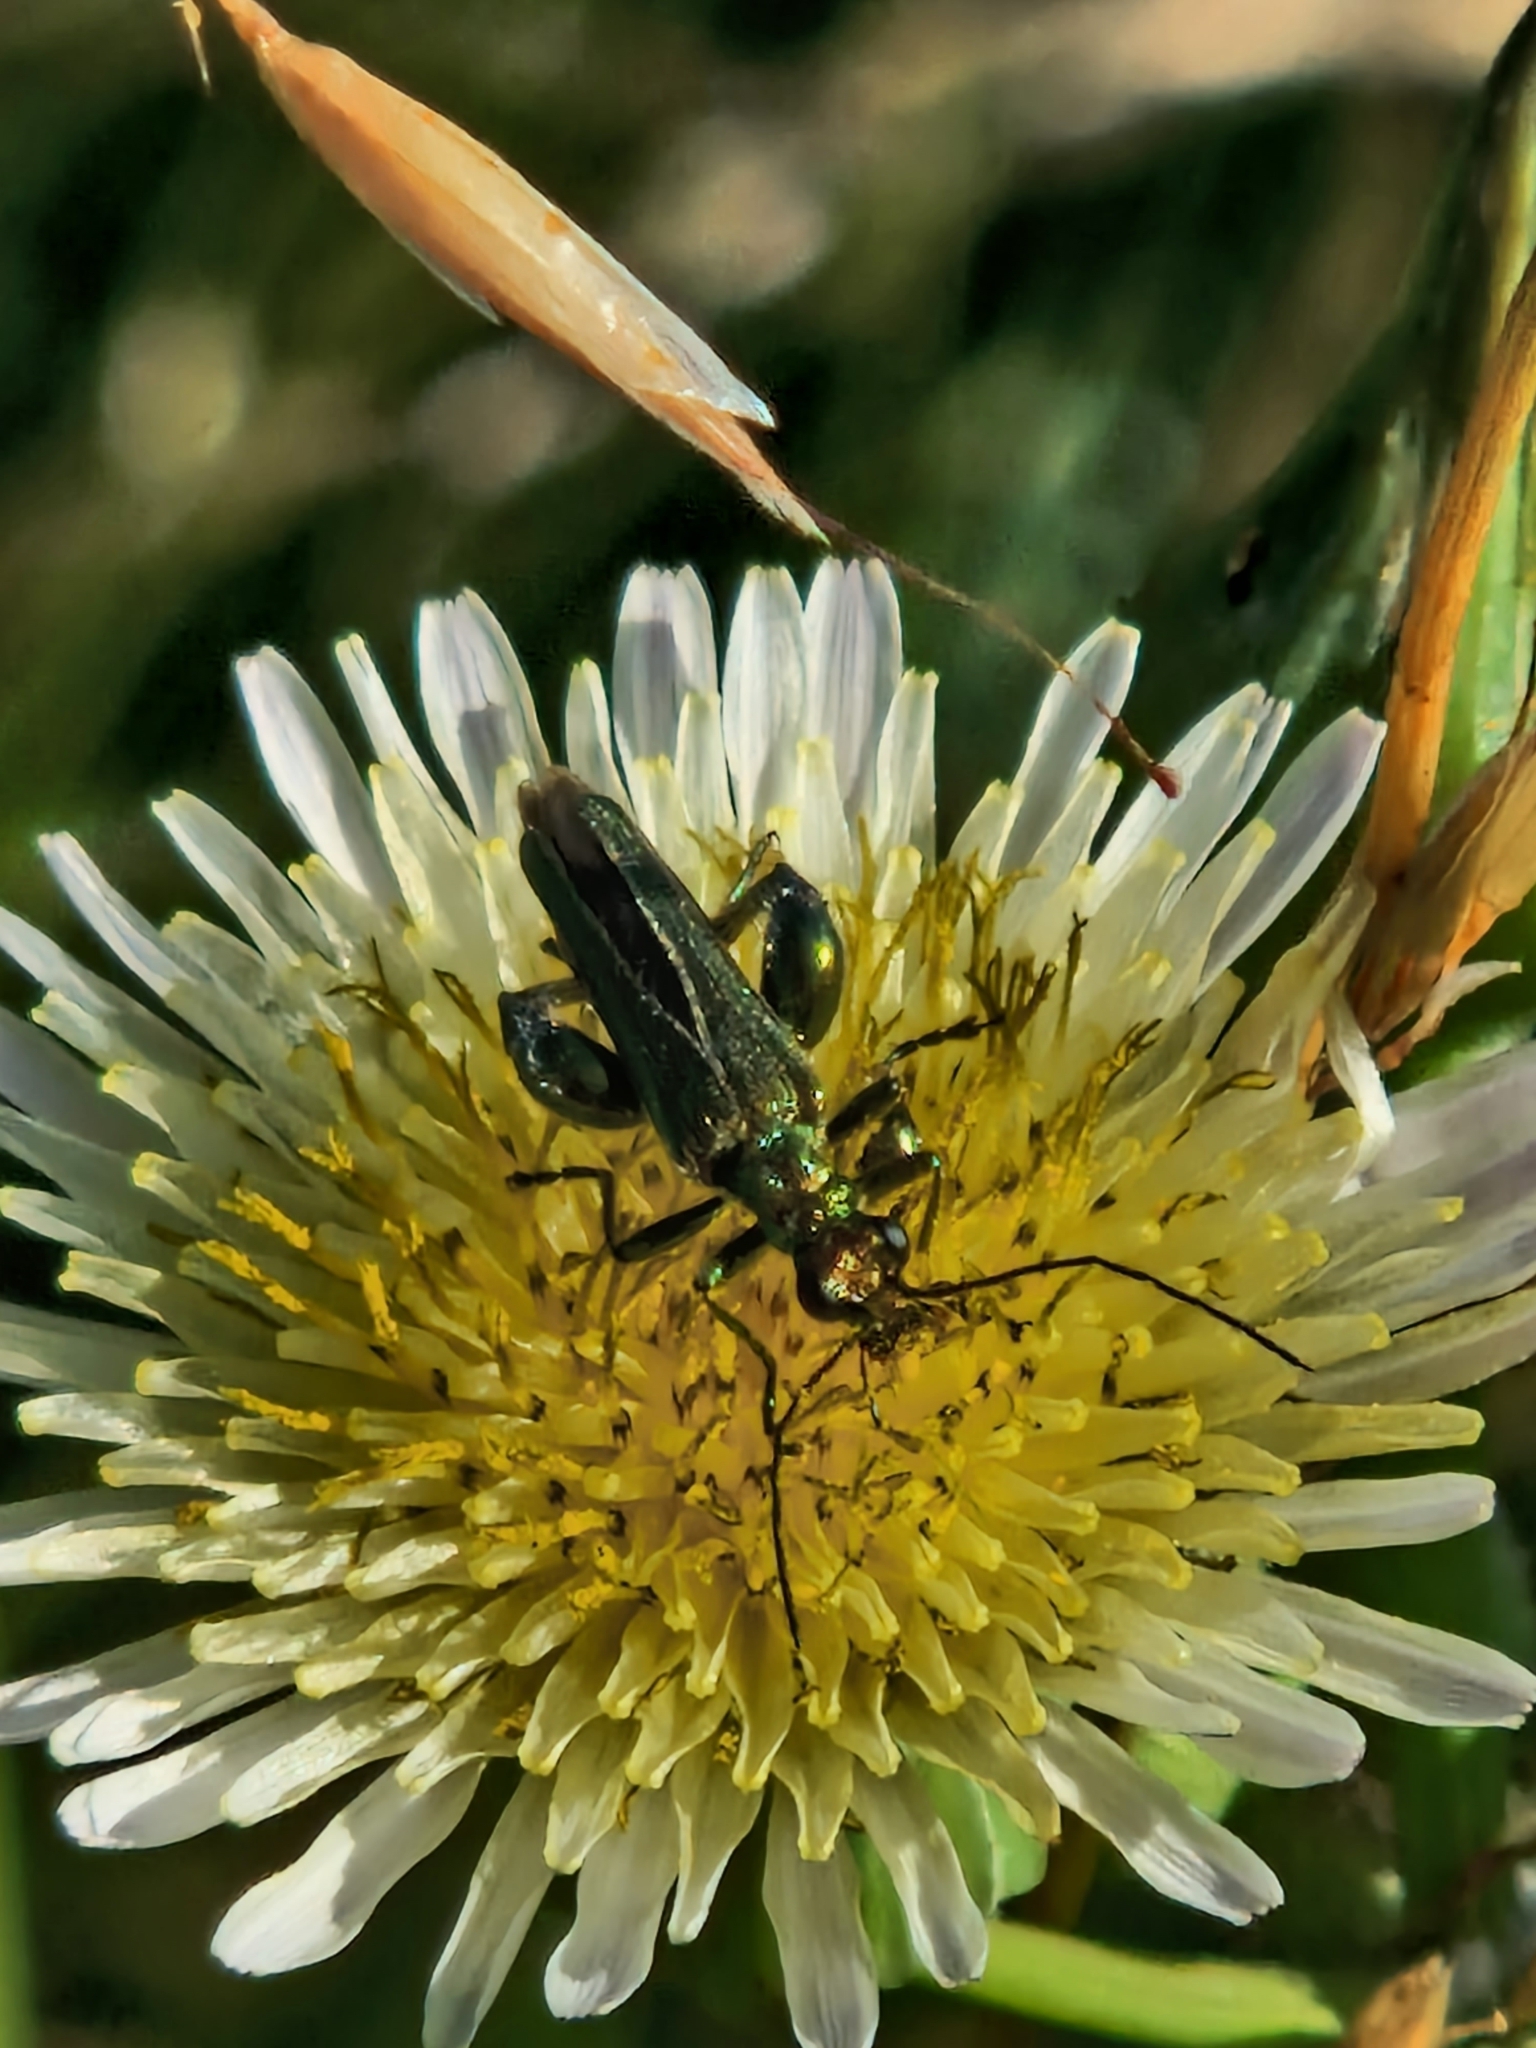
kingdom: Animalia
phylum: Arthropoda
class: Insecta
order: Coleoptera
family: Oedemeridae
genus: Oedemera
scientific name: Oedemera nobilis
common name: Swollen-thighed beetle
